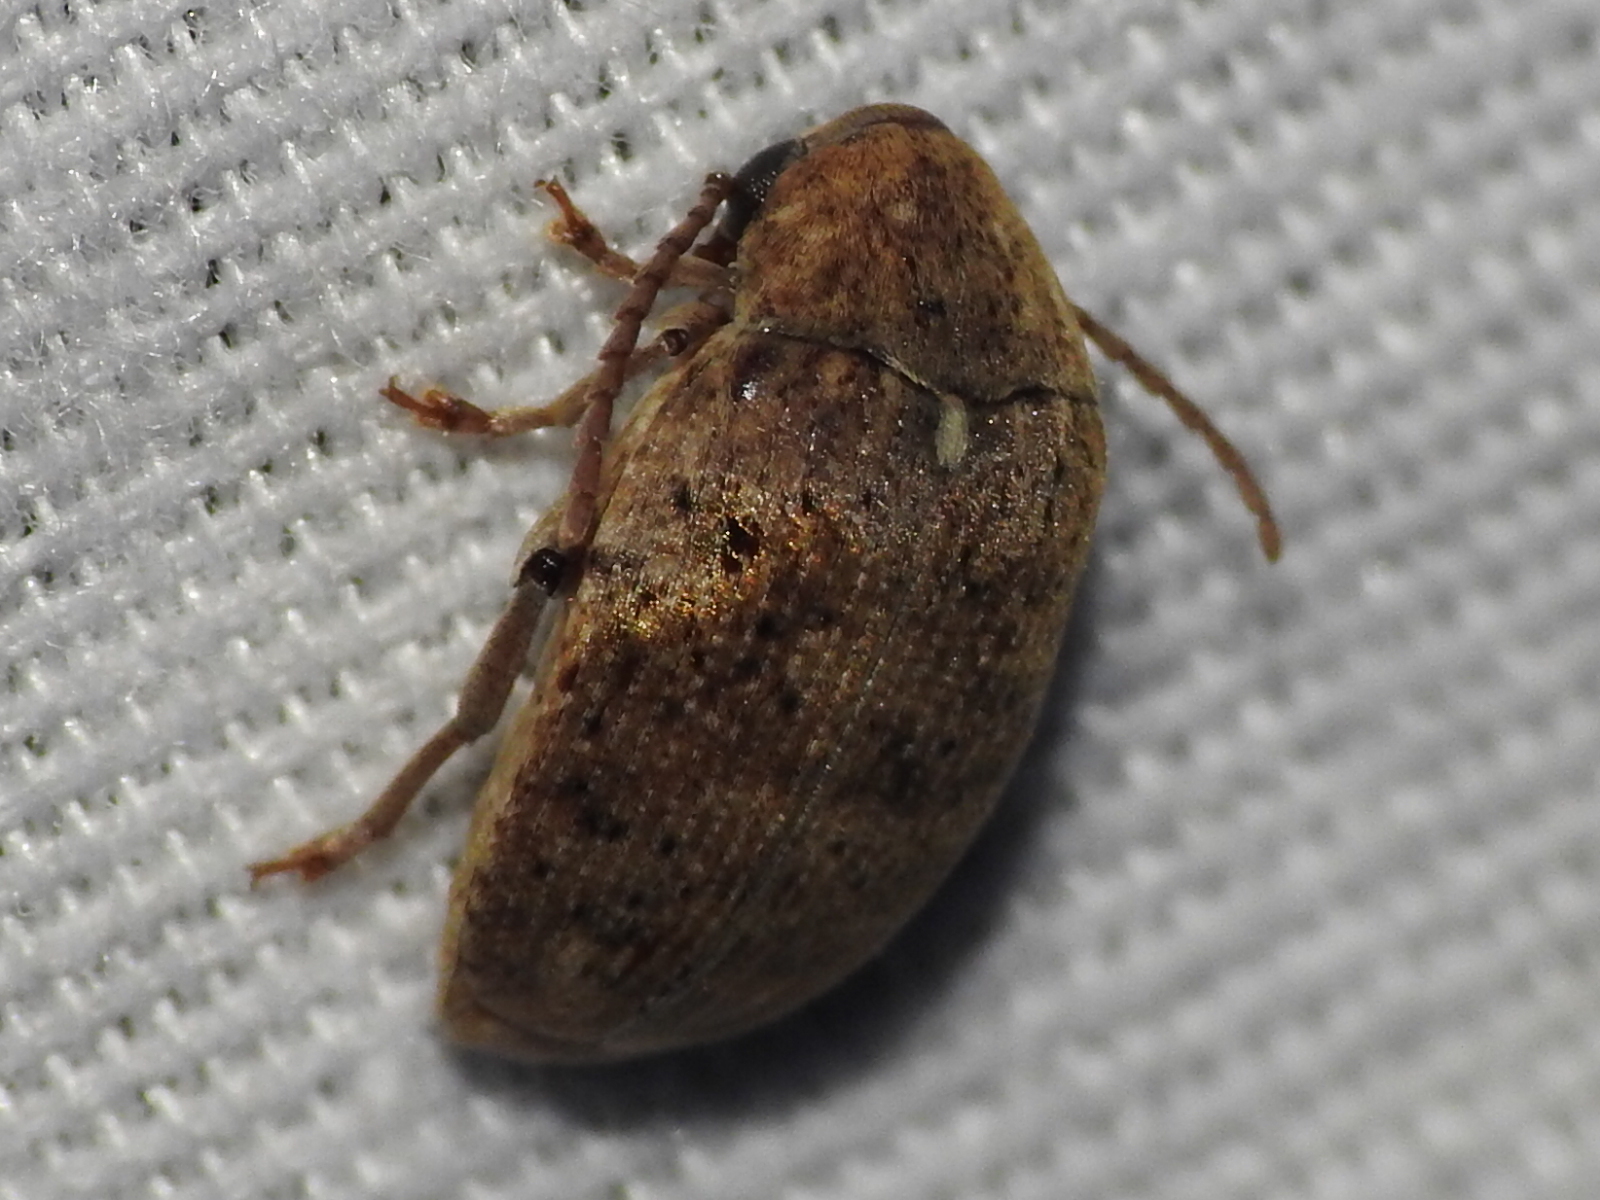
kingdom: Animalia
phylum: Arthropoda
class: Insecta
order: Coleoptera
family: Chrysomelidae
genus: Amblycerus
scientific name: Amblycerus robiniae
